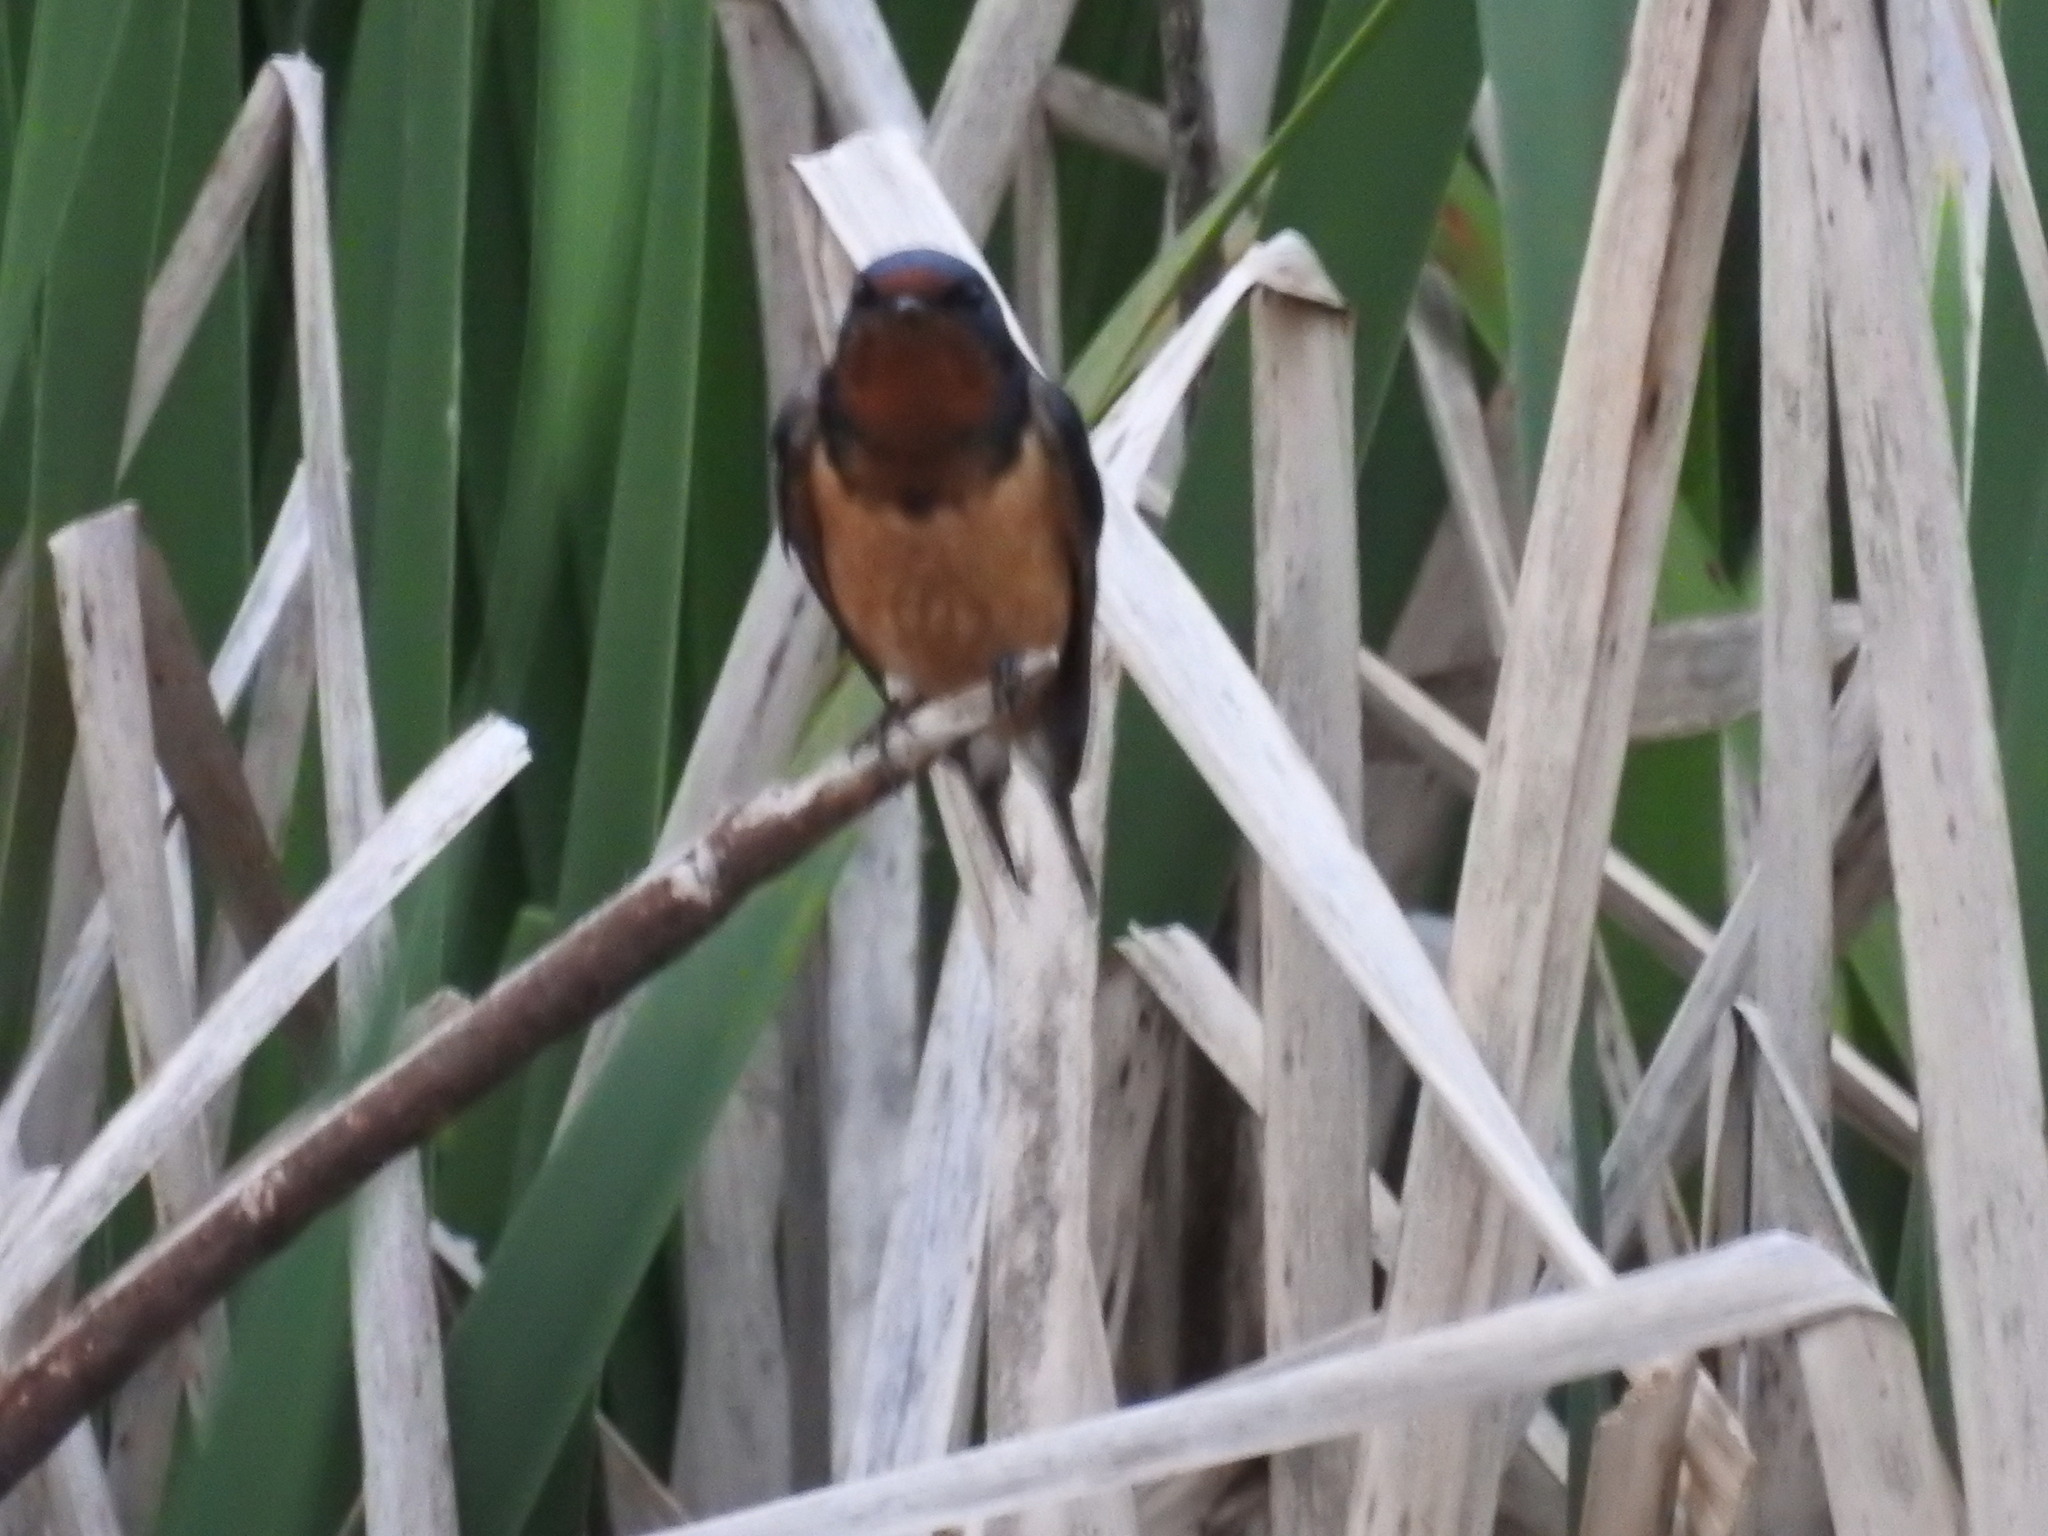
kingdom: Animalia
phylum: Chordata
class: Aves
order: Passeriformes
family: Hirundinidae
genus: Hirundo
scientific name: Hirundo rustica
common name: Barn swallow
